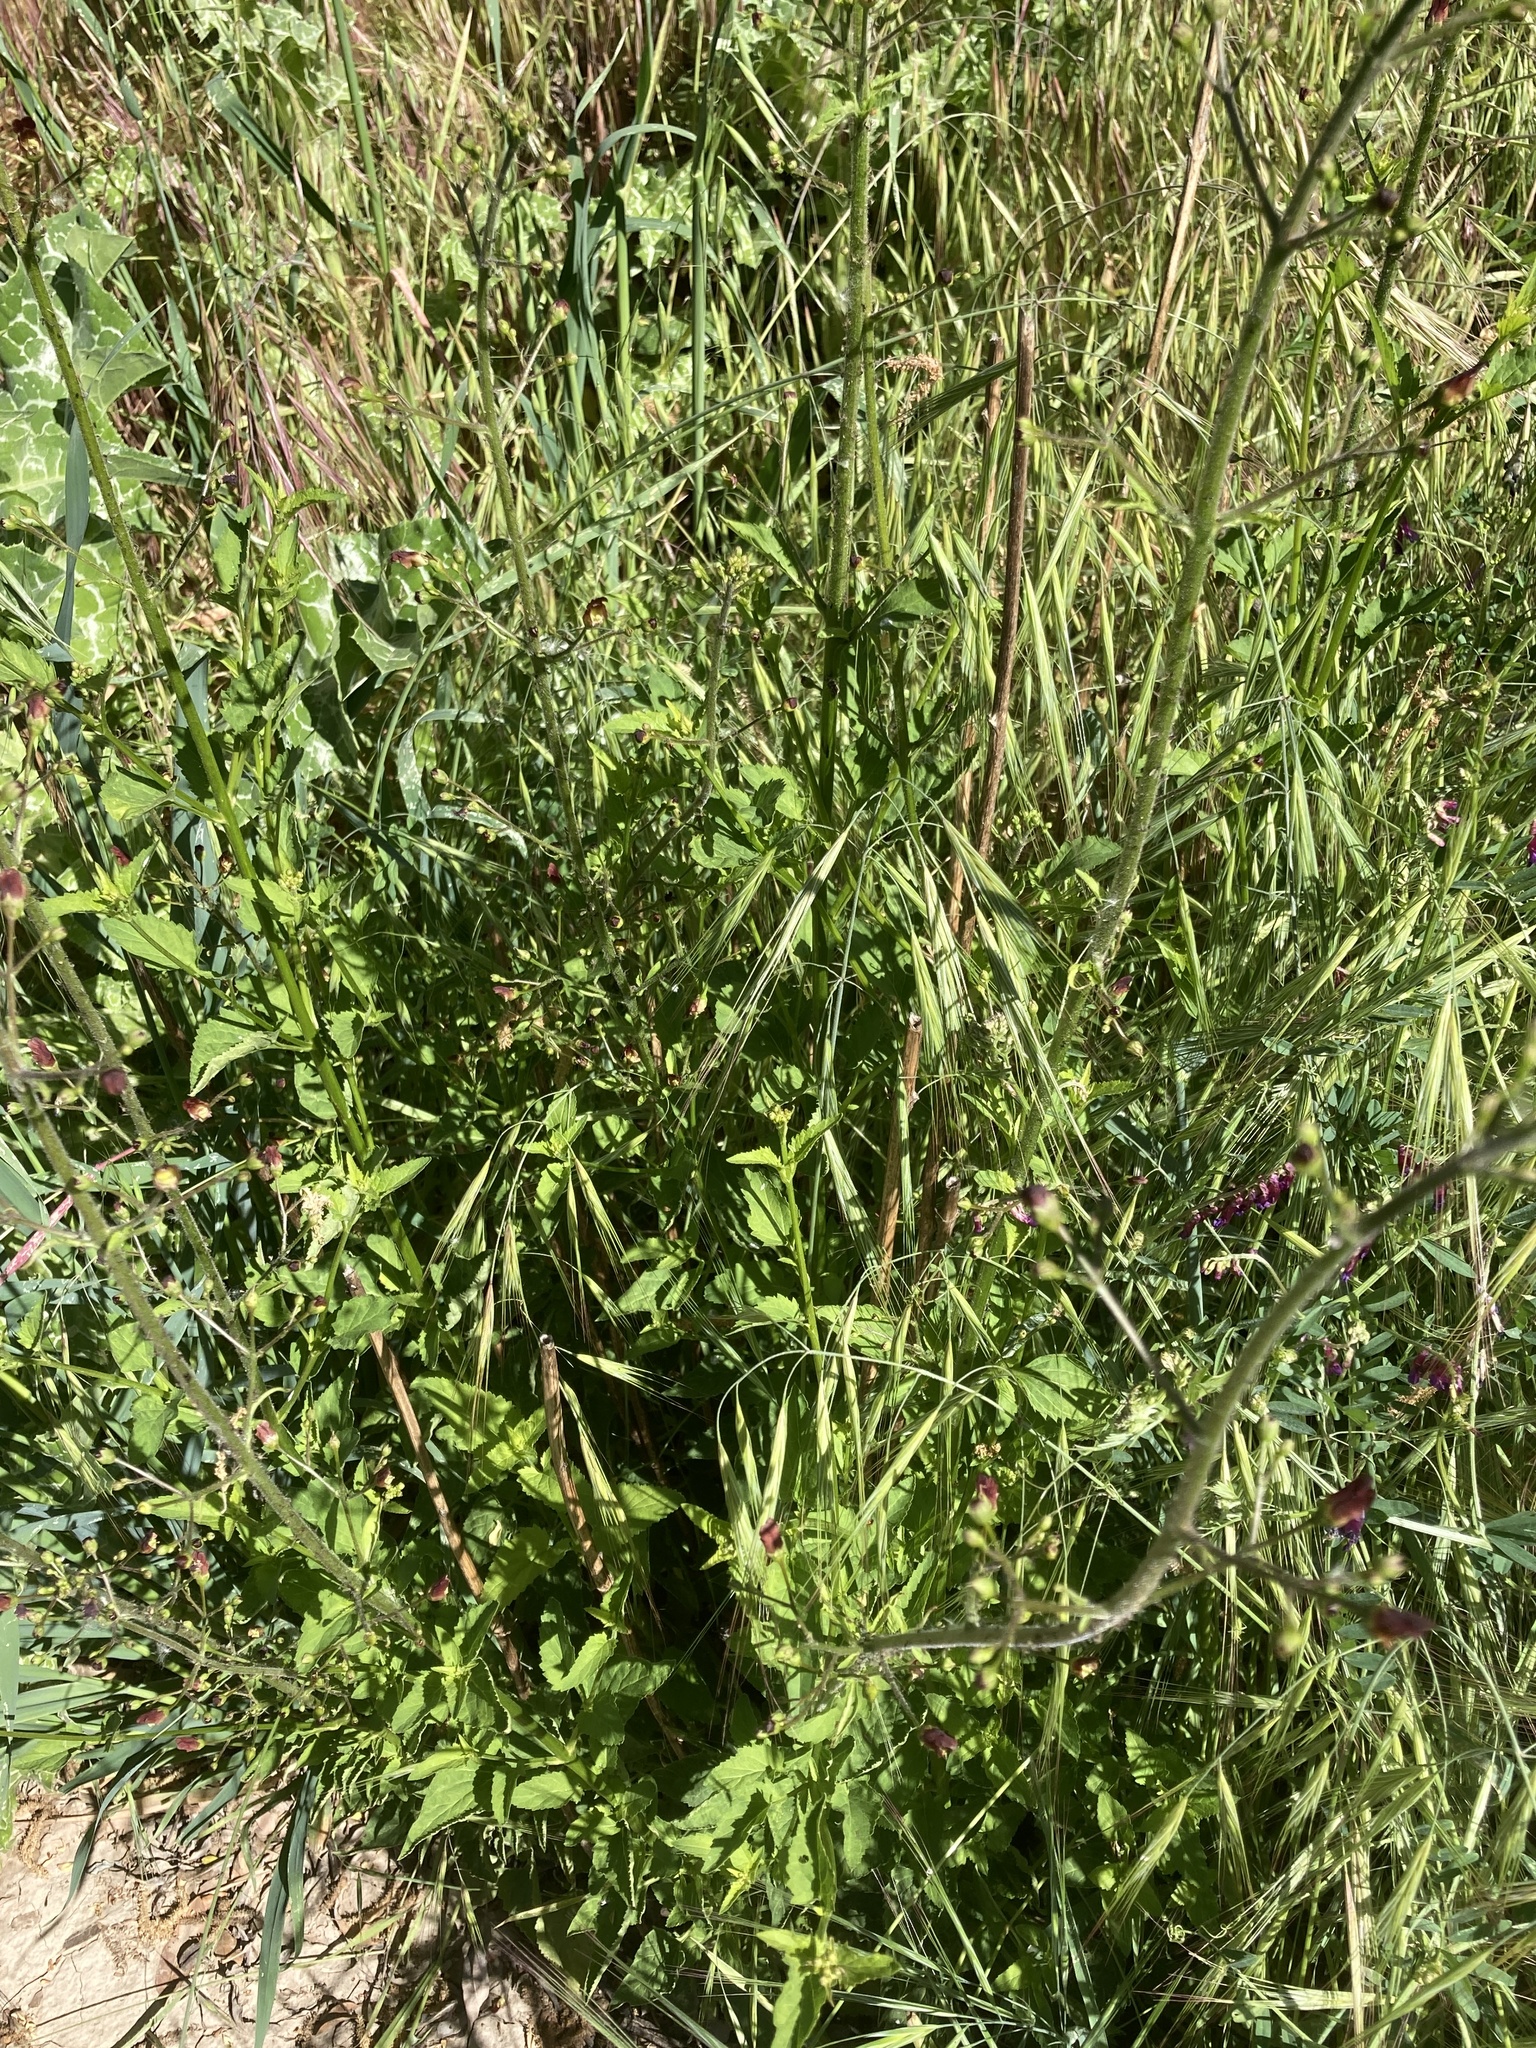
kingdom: Plantae
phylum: Tracheophyta
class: Magnoliopsida
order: Lamiales
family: Scrophulariaceae
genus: Scrophularia
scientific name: Scrophularia californica
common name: California figwort
